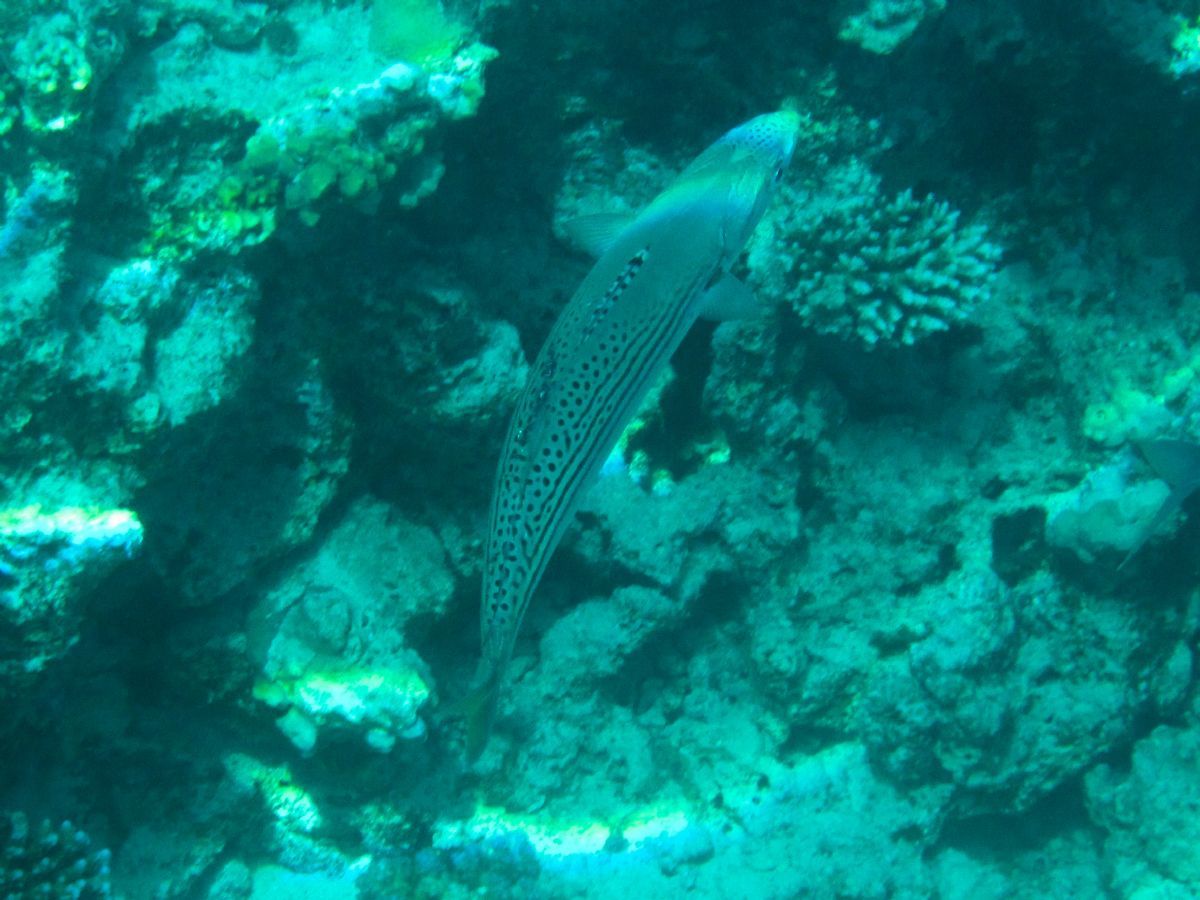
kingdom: Animalia
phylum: Chordata
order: Perciformes
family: Scombridae
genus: Rastrelliger
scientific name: Rastrelliger kanagurta
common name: Indian mackerel
